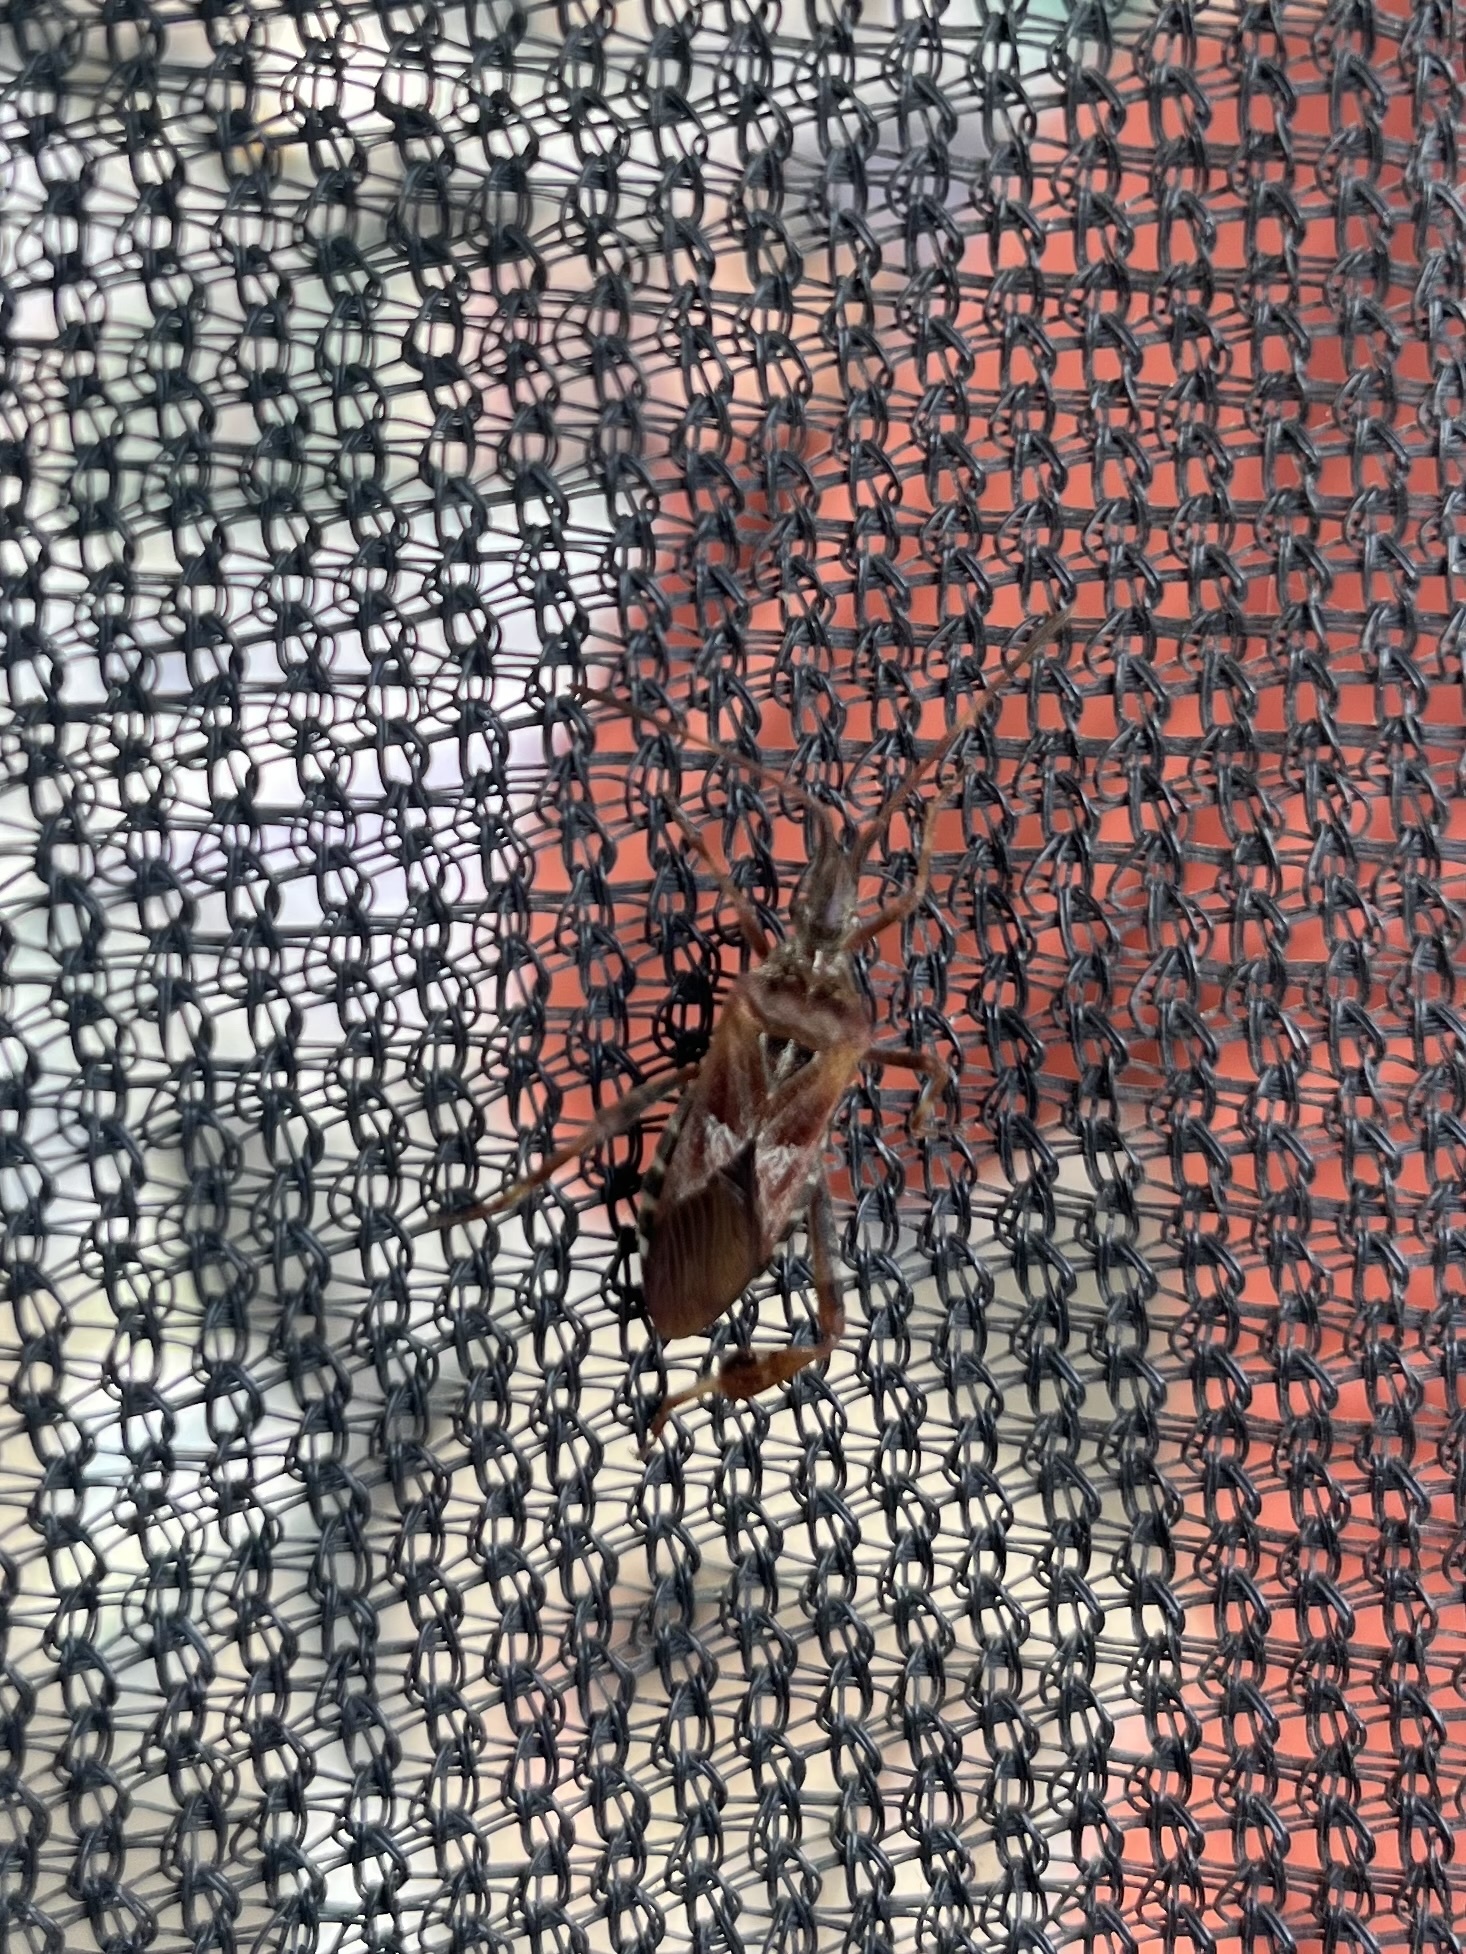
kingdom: Animalia
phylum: Arthropoda
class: Insecta
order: Hemiptera
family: Coreidae
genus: Leptoglossus
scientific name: Leptoglossus occidentalis
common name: Western conifer-seed bug
